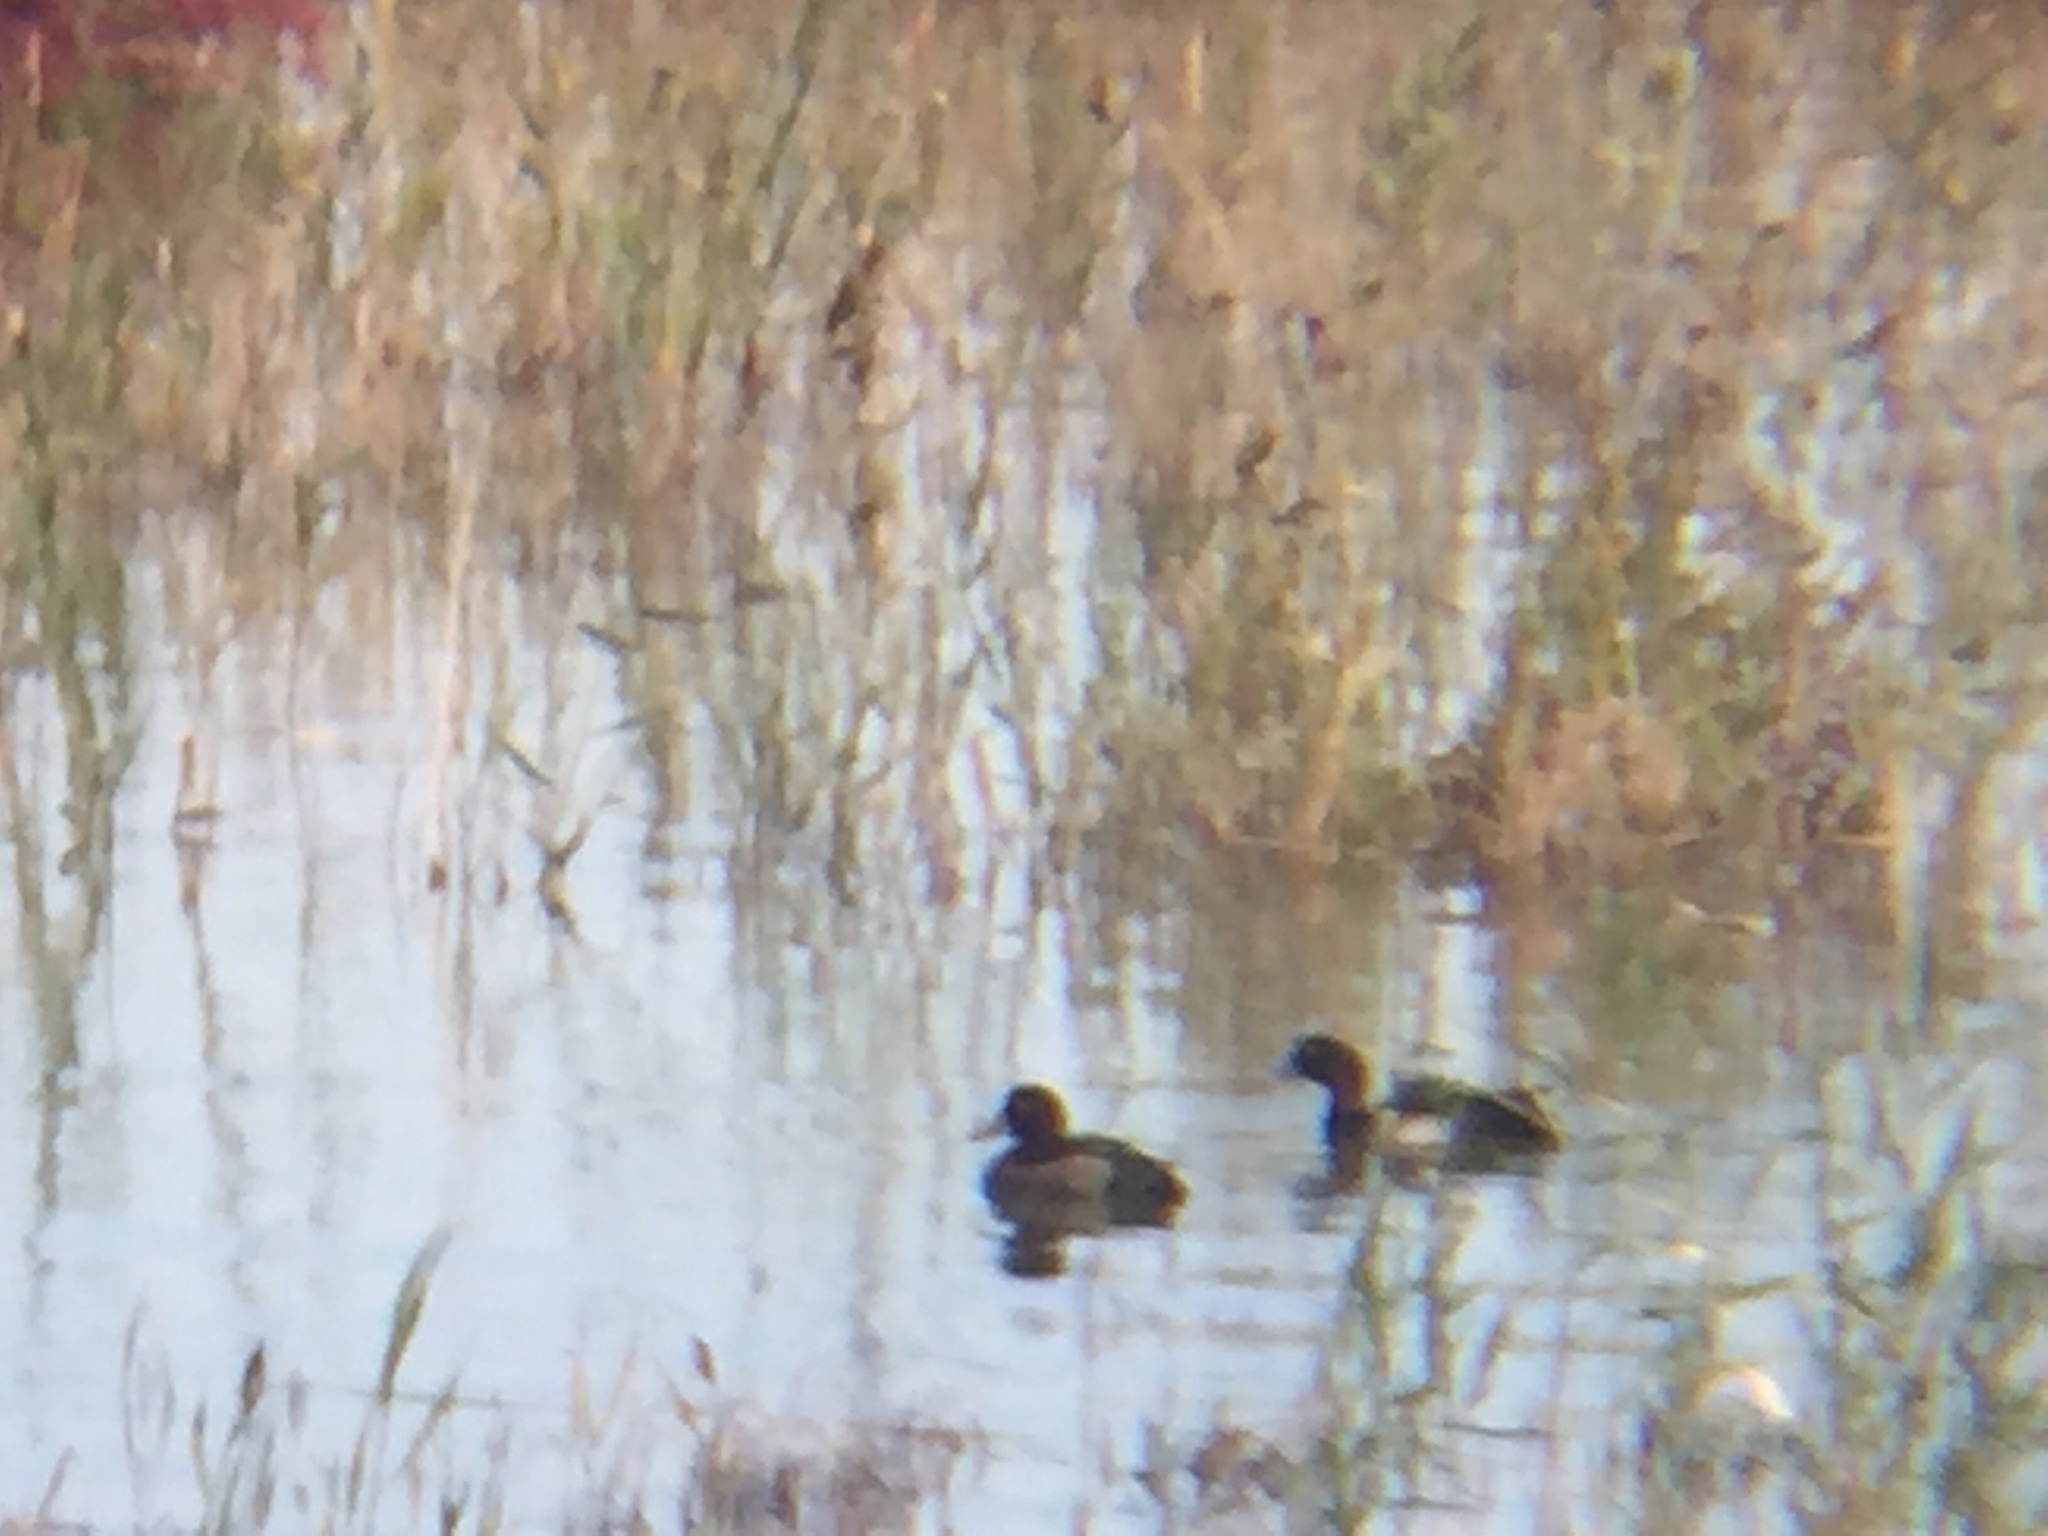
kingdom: Animalia
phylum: Chordata
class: Aves
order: Anseriformes
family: Anatidae
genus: Aythya
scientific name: Aythya marila
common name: Greater scaup
